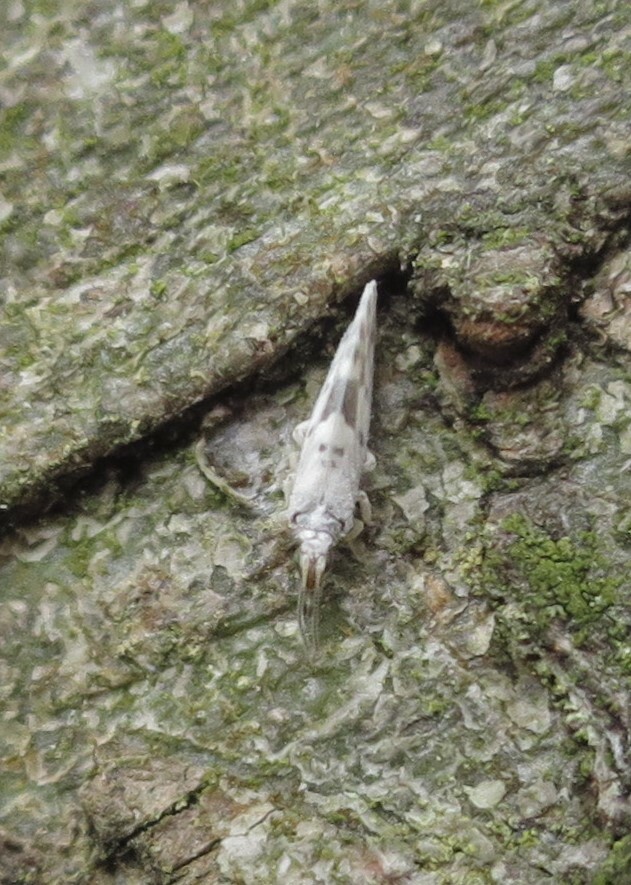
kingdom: Animalia
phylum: Arthropoda
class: Insecta
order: Neuroptera
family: Coniopterygidae
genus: Heteroconis
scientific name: Heteroconis ornata
